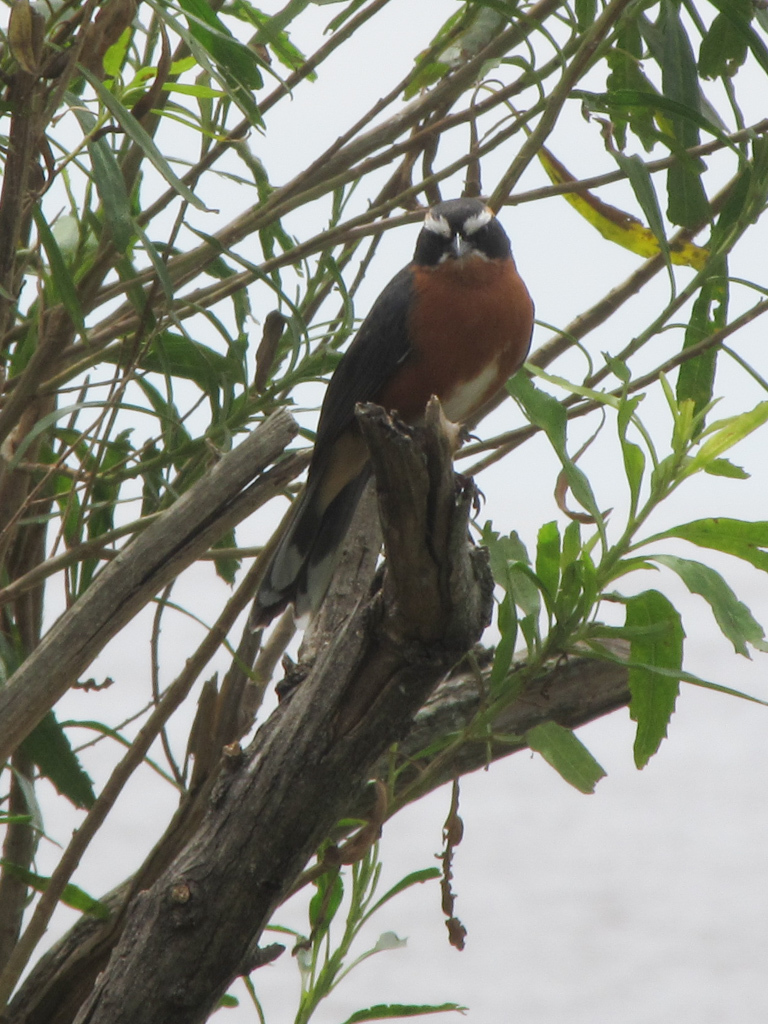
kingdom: Animalia
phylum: Chordata
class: Aves
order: Passeriformes
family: Thraupidae
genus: Poospiza
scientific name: Poospiza nigrorufa
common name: Black-and-rufous warbling finch
